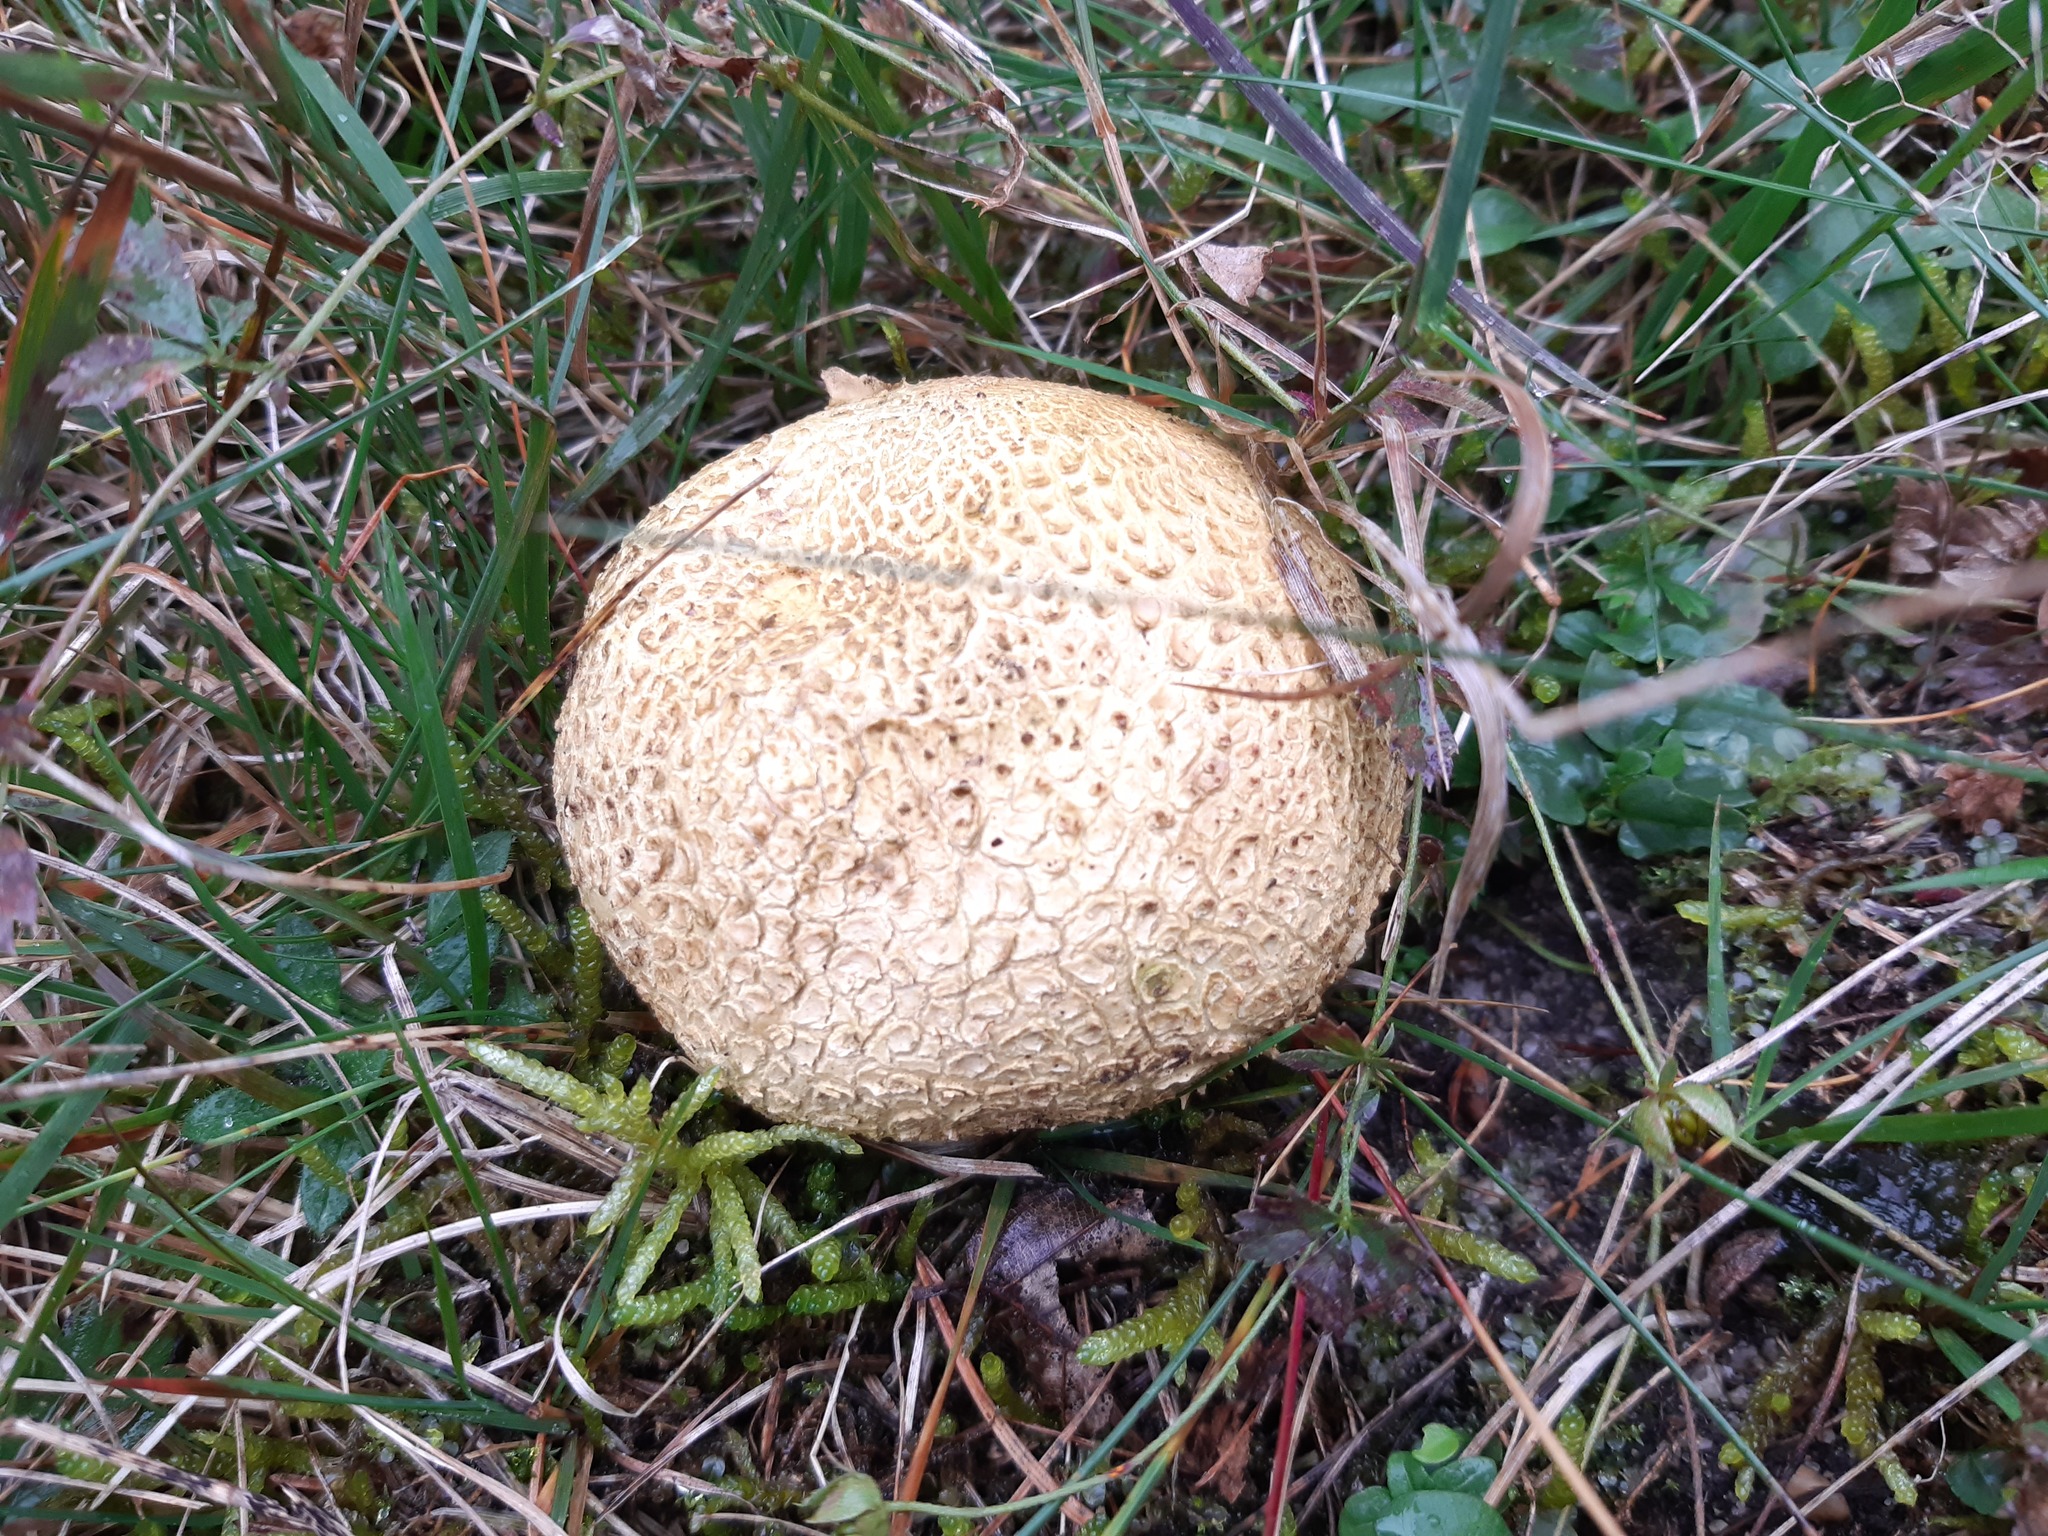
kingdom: Fungi
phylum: Basidiomycota
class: Agaricomycetes
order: Boletales
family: Sclerodermataceae
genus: Scleroderma
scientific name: Scleroderma citrinum
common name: Common earthball
